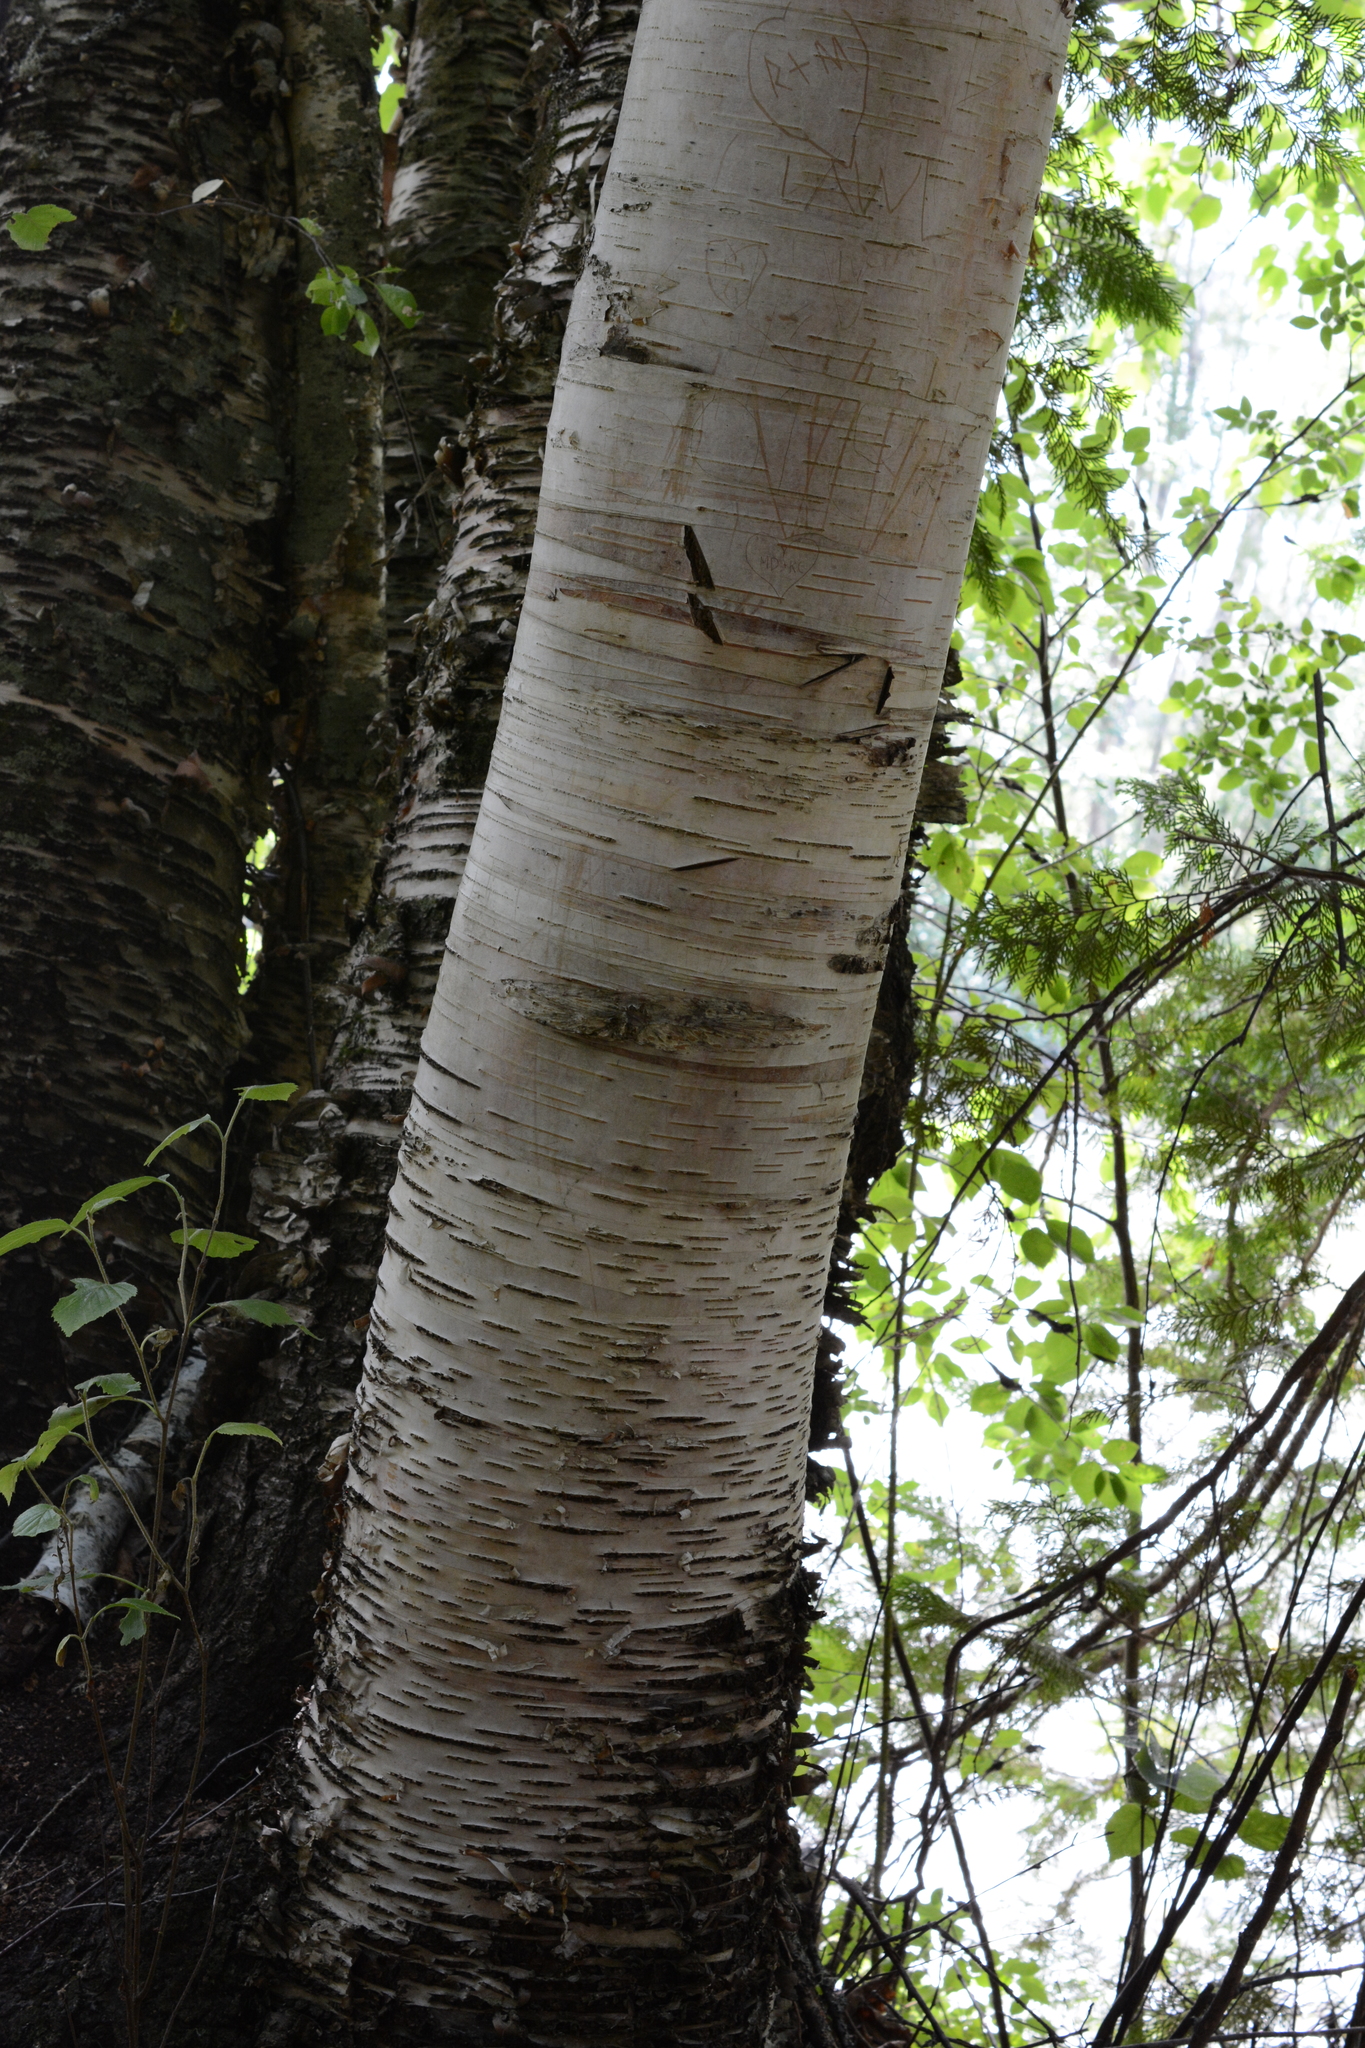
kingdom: Plantae
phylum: Tracheophyta
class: Magnoliopsida
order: Fagales
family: Betulaceae
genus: Betula
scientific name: Betula papyrifera
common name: Paper birch
